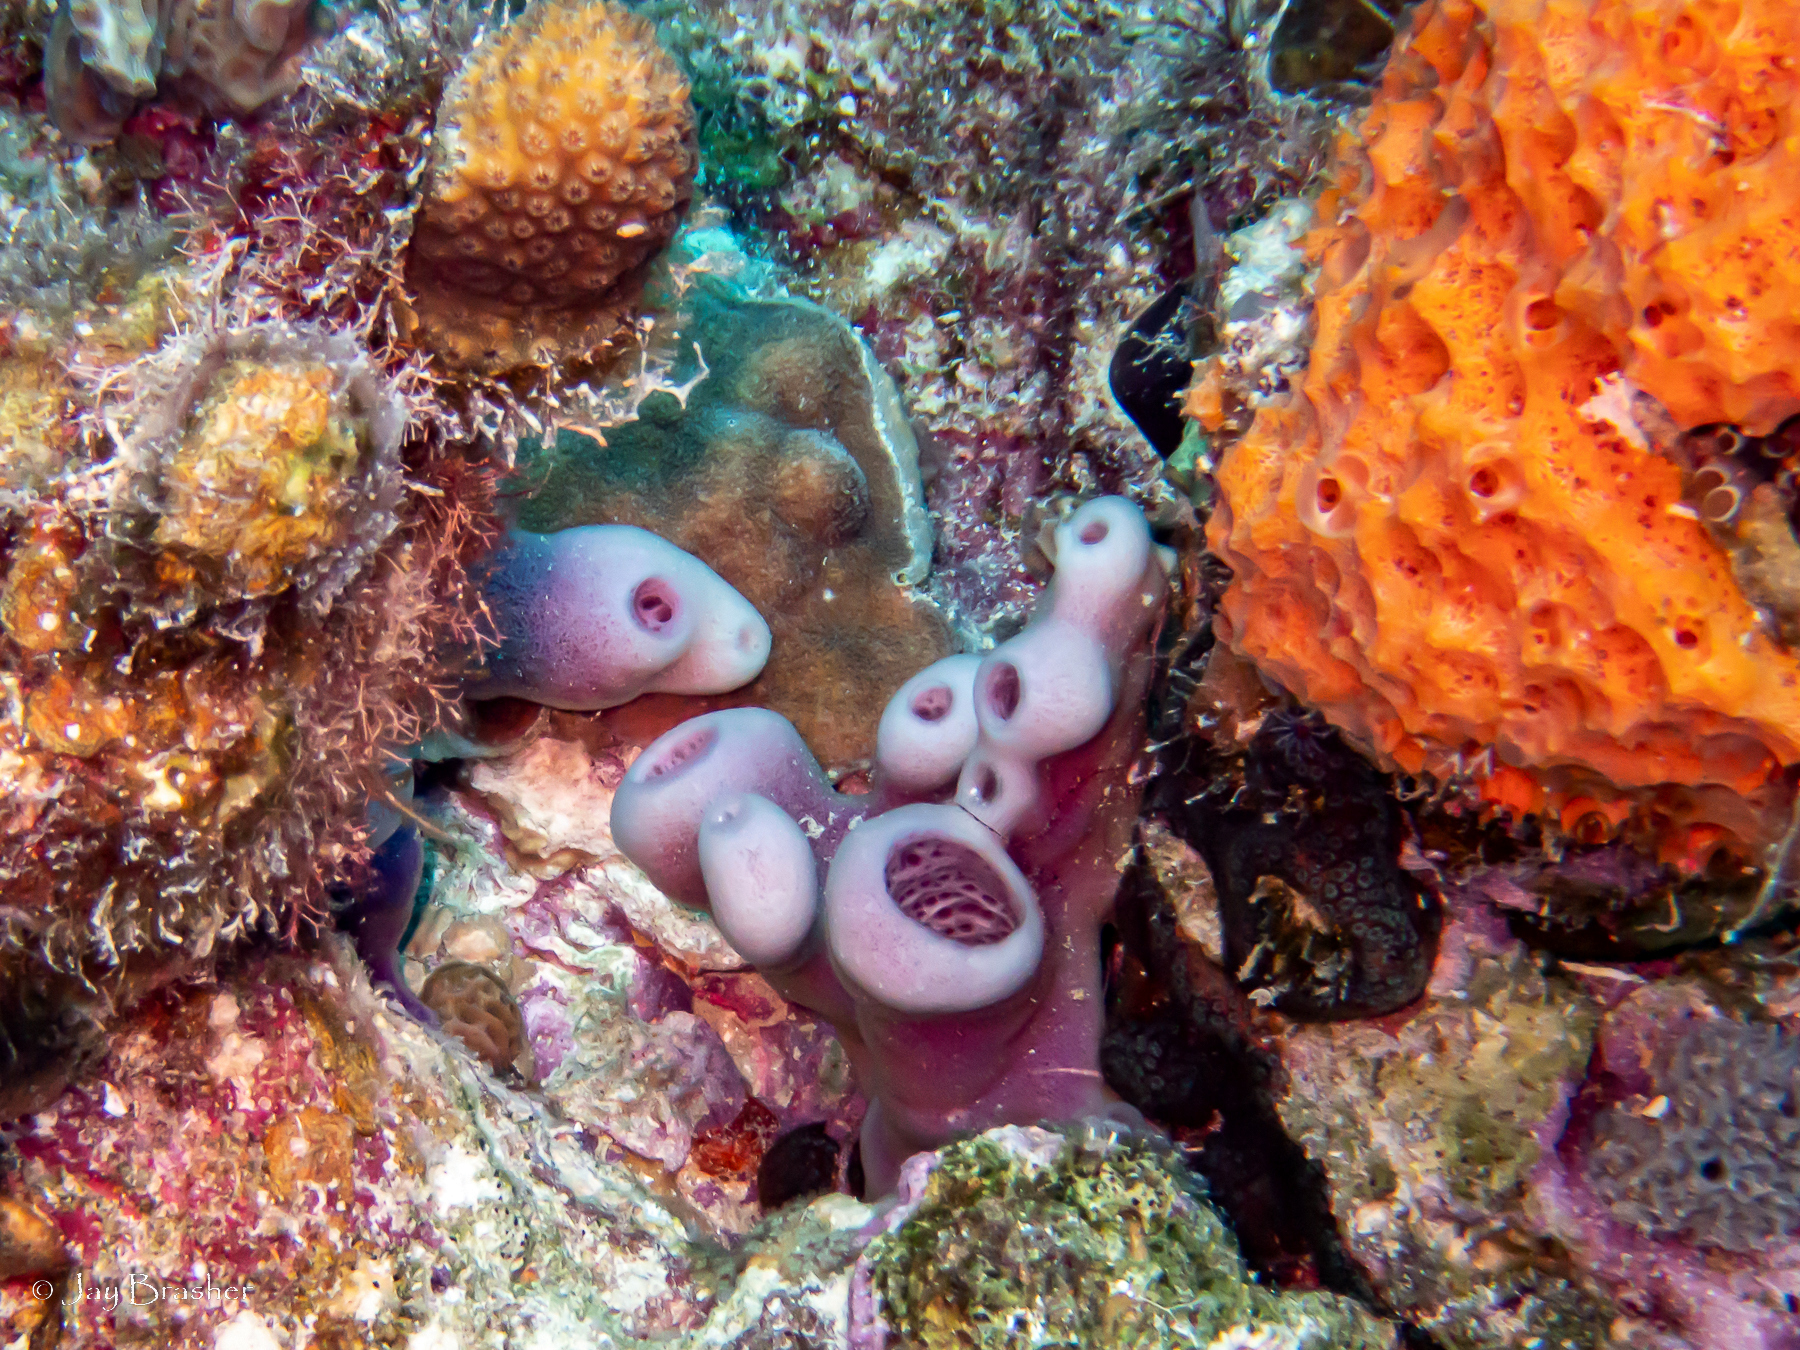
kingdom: Animalia
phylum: Porifera
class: Demospongiae
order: Scopalinida
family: Scopalinidae
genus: Scopalina
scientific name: Scopalina ruetzleri
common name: Orange lumpy encrusting sponge
